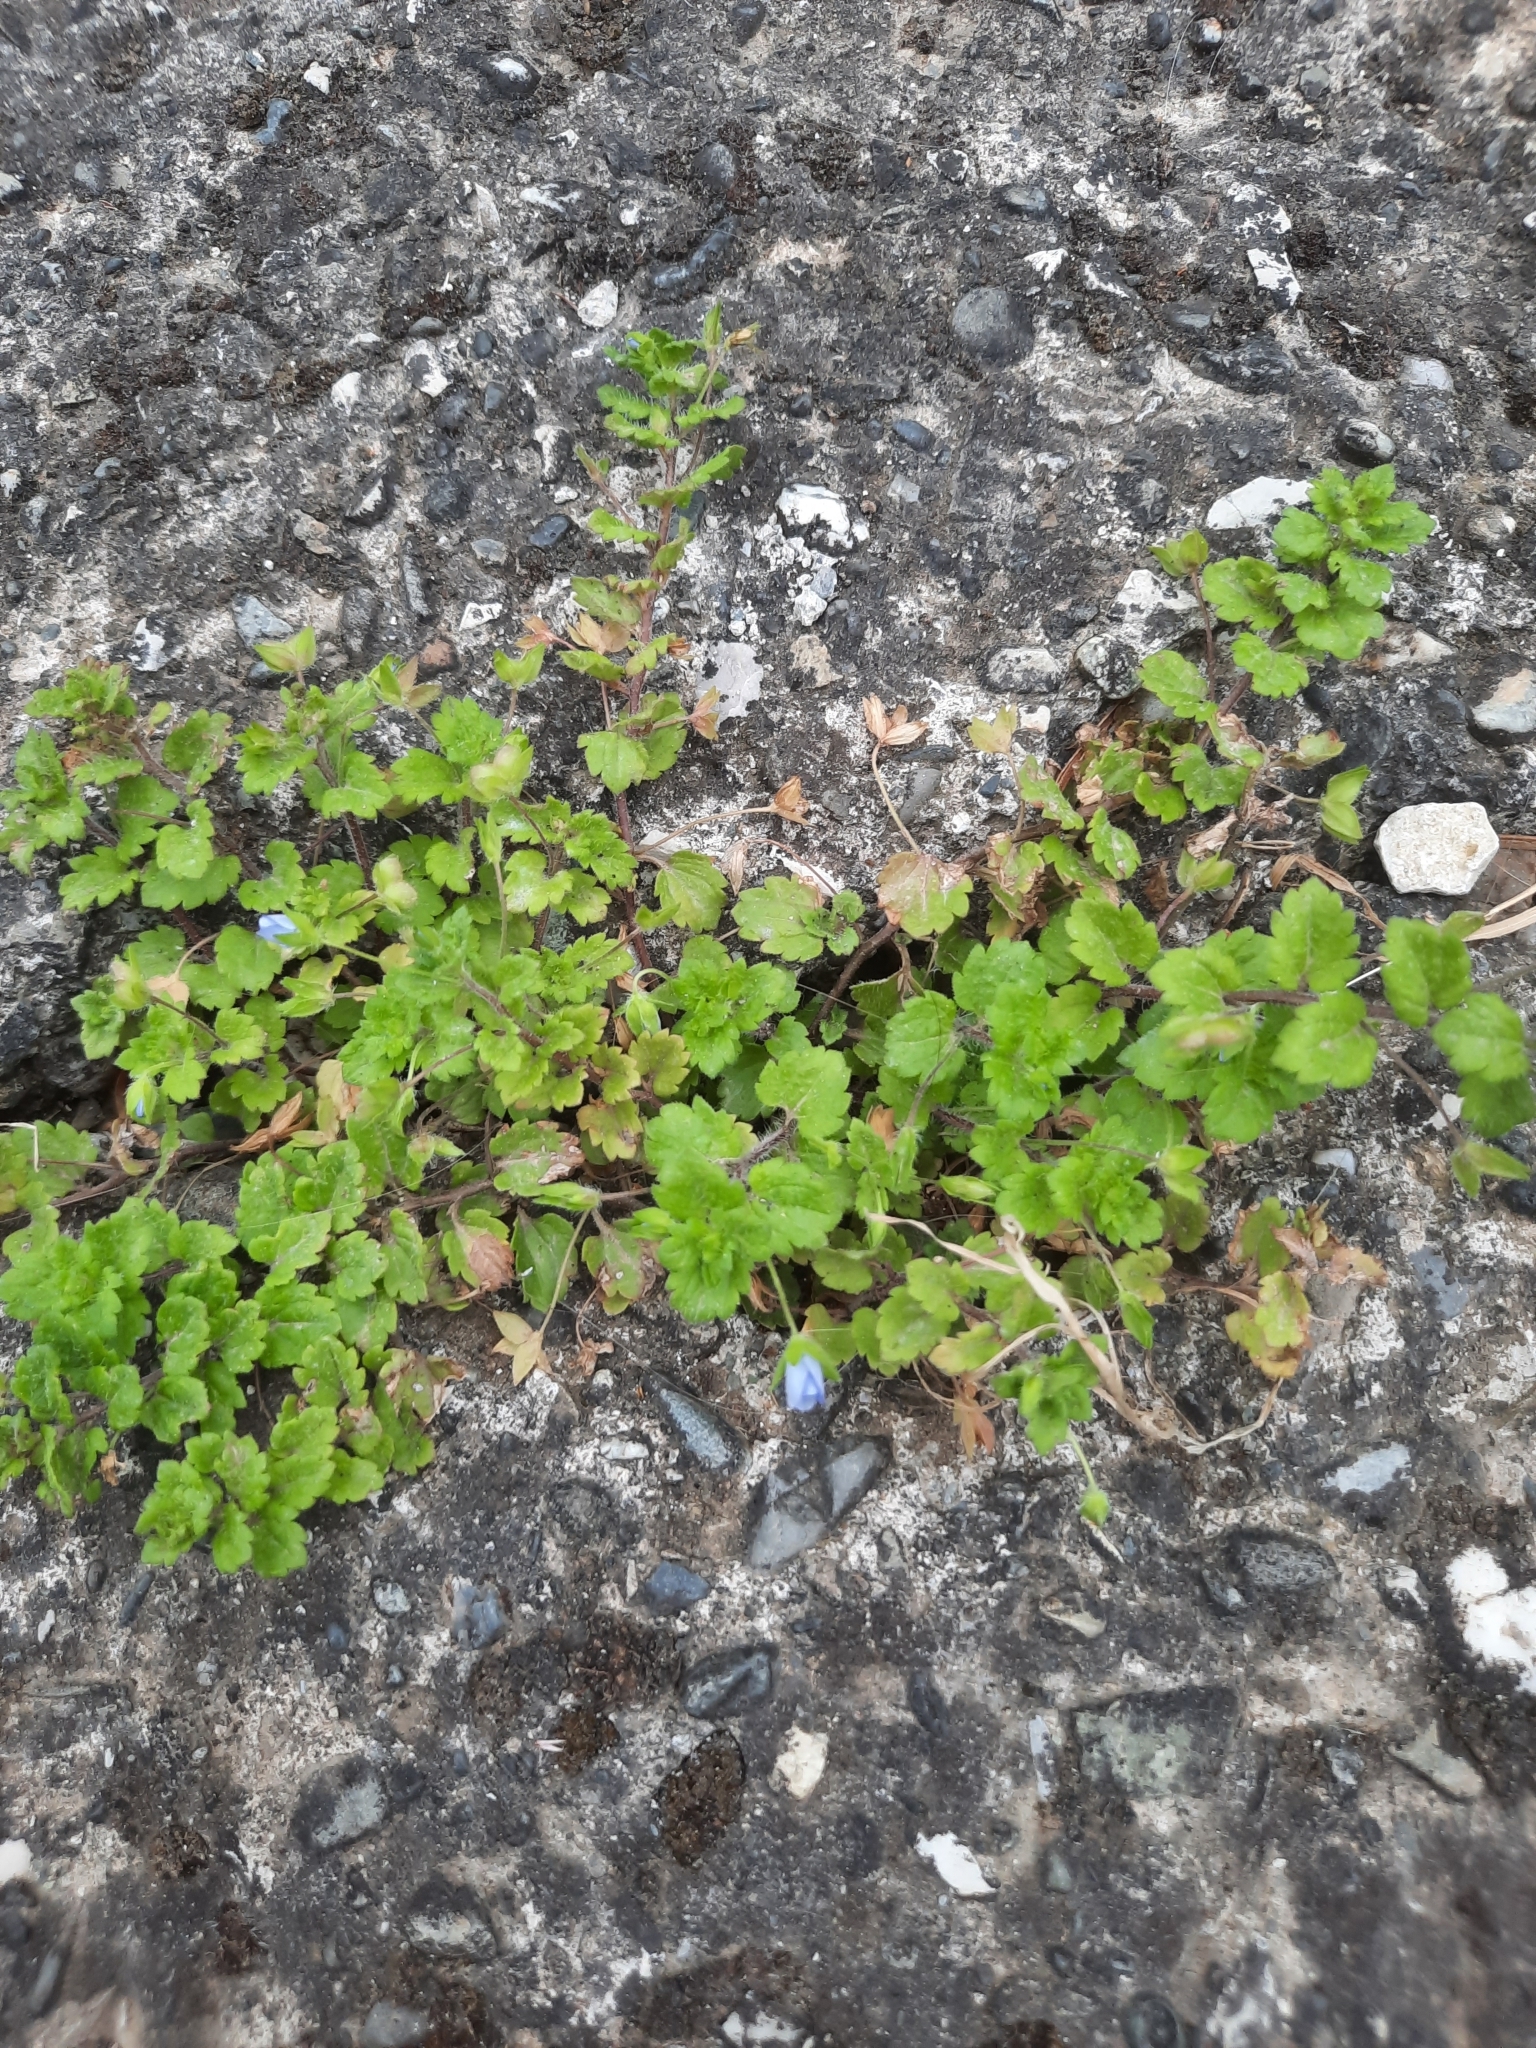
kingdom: Plantae
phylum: Tracheophyta
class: Magnoliopsida
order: Lamiales
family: Plantaginaceae
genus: Veronica
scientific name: Veronica polita
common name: Grey field-speedwell
